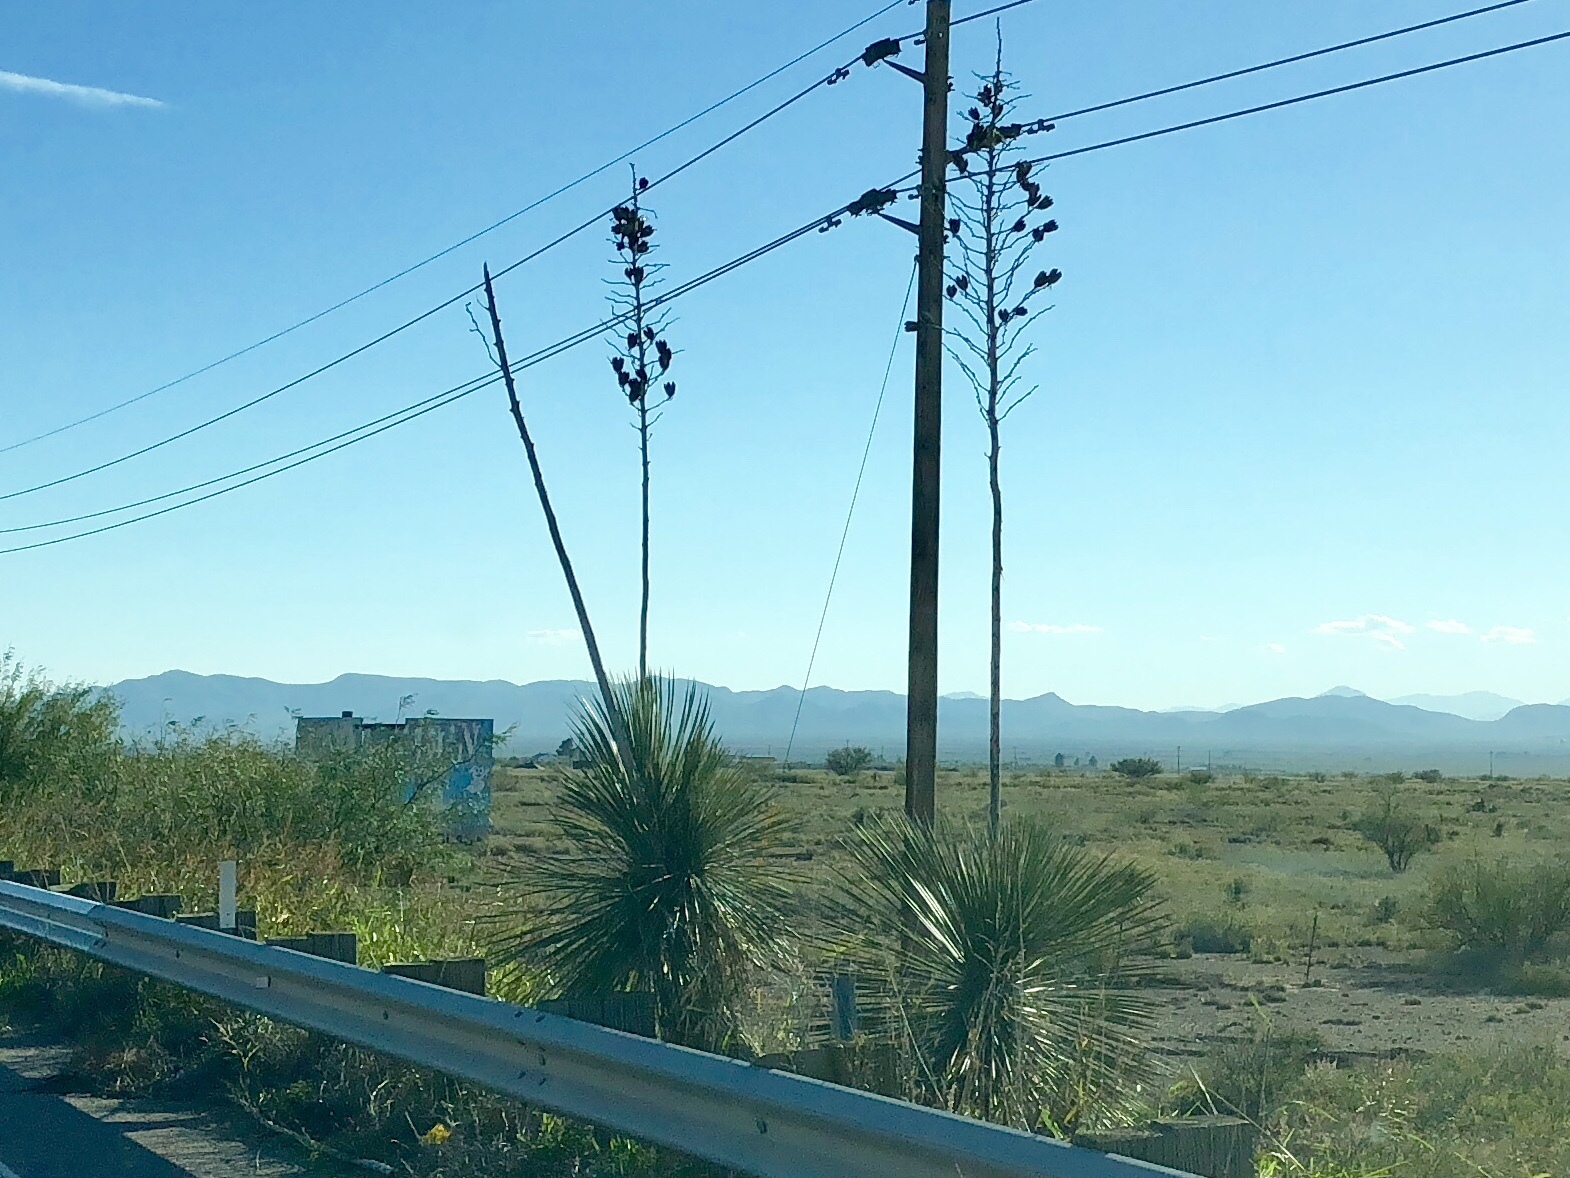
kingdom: Plantae
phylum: Tracheophyta
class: Liliopsida
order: Asparagales
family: Asparagaceae
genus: Yucca
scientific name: Yucca elata
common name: Palmella
